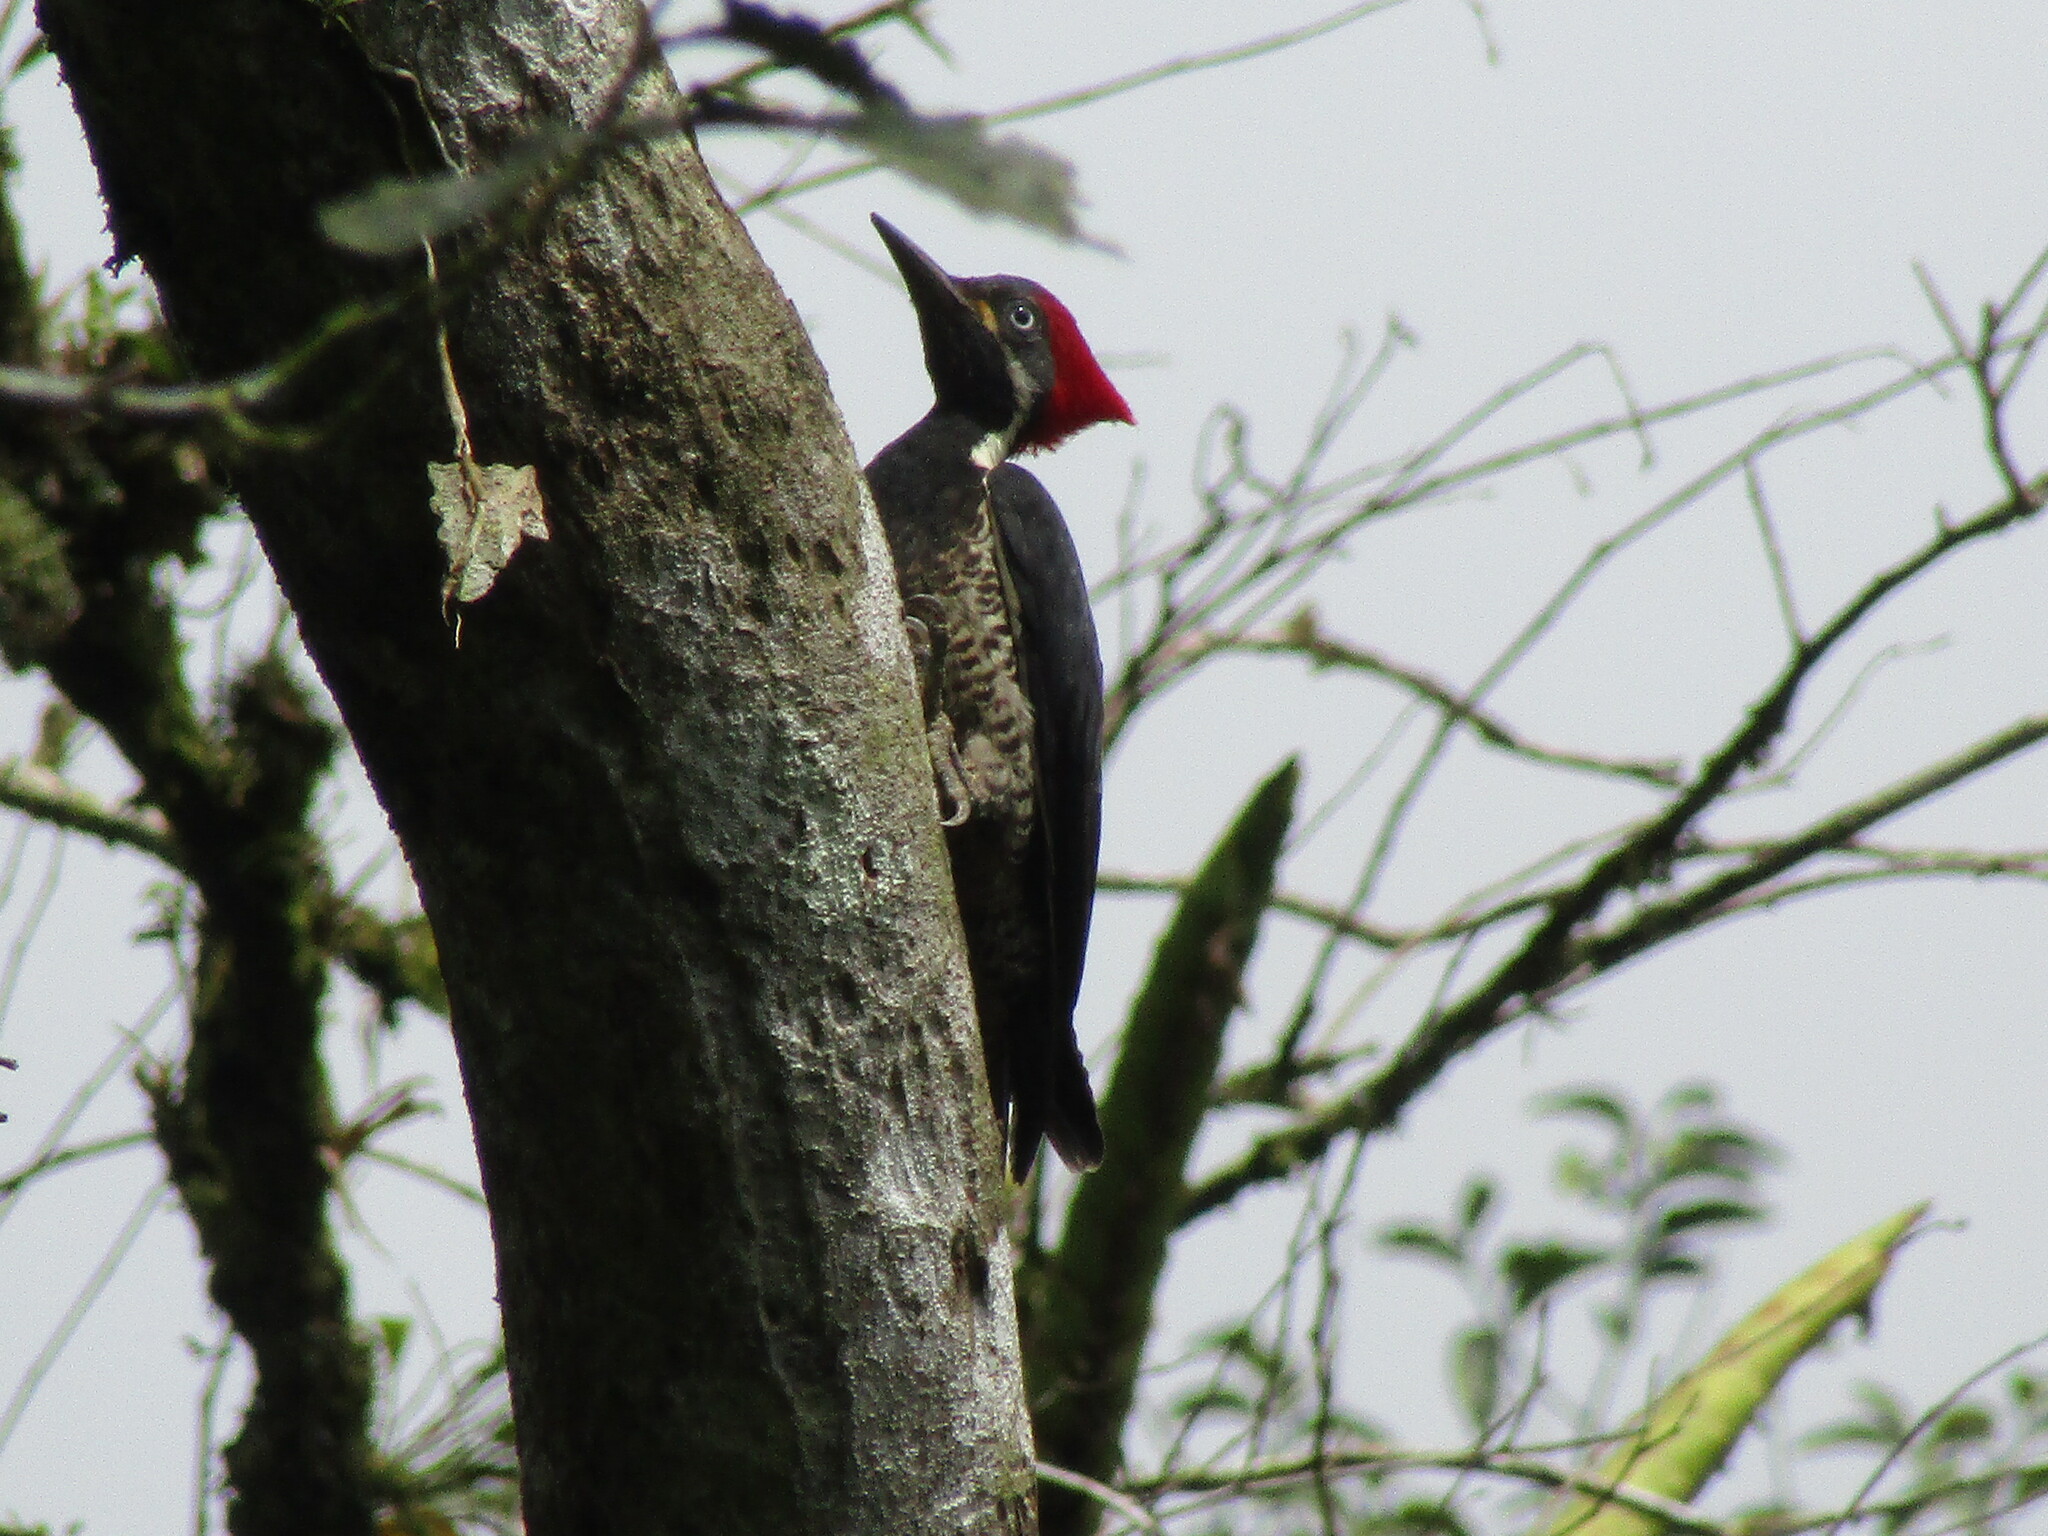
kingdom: Animalia
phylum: Chordata
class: Aves
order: Piciformes
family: Picidae
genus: Dryocopus
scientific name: Dryocopus lineatus
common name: Lineated woodpecker
